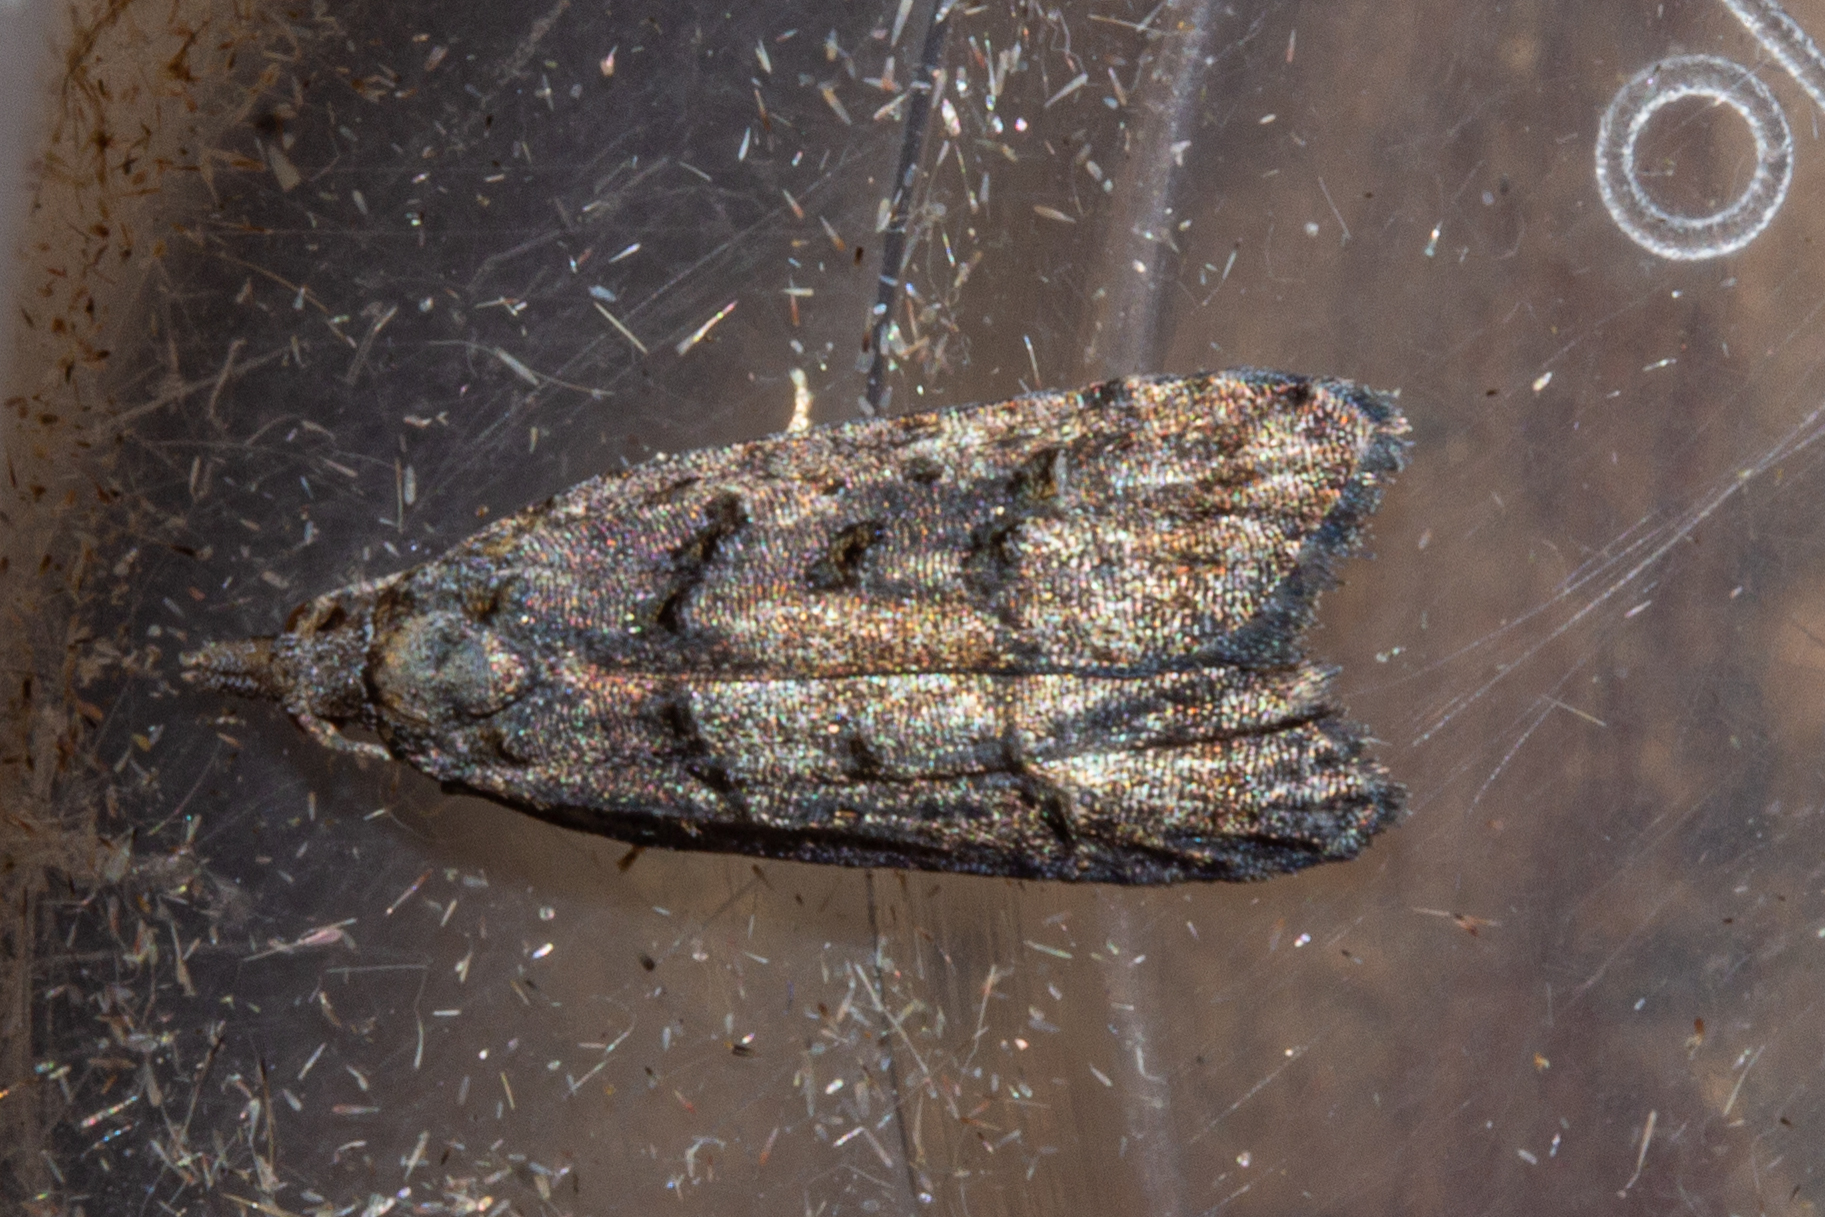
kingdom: Animalia
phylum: Arthropoda
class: Insecta
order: Lepidoptera
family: Carposinidae
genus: Carposina
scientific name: Carposina
